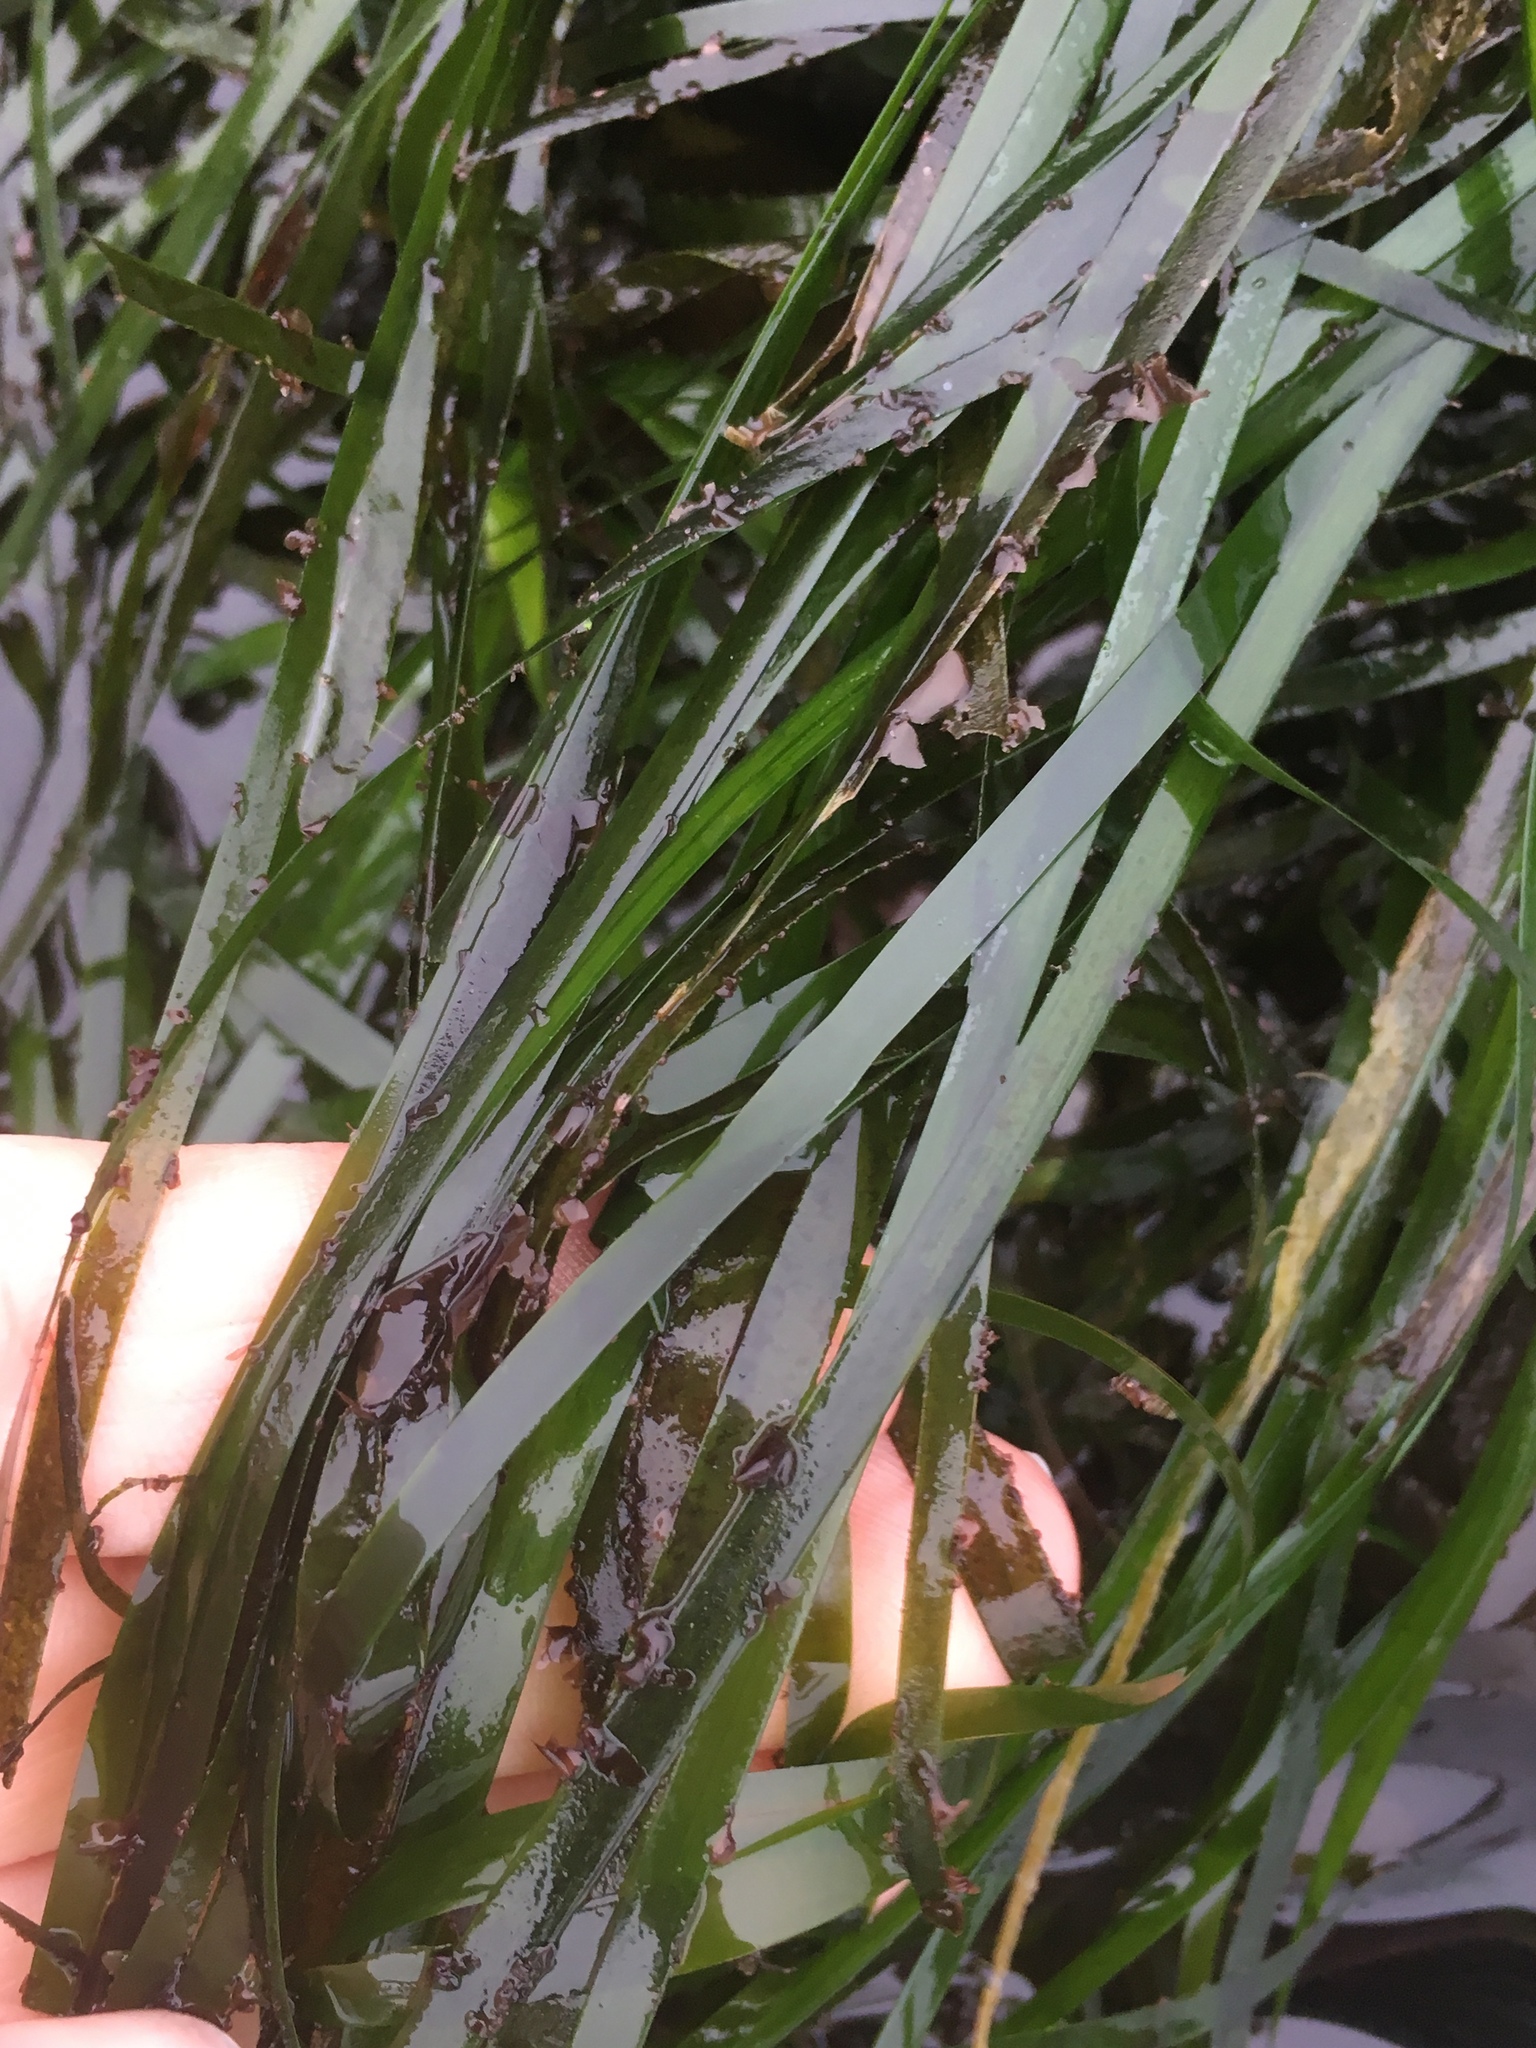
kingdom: Plantae
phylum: Tracheophyta
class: Liliopsida
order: Alismatales
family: Zosteraceae
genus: Phyllospadix
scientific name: Phyllospadix scouleri
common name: Species code: ps
